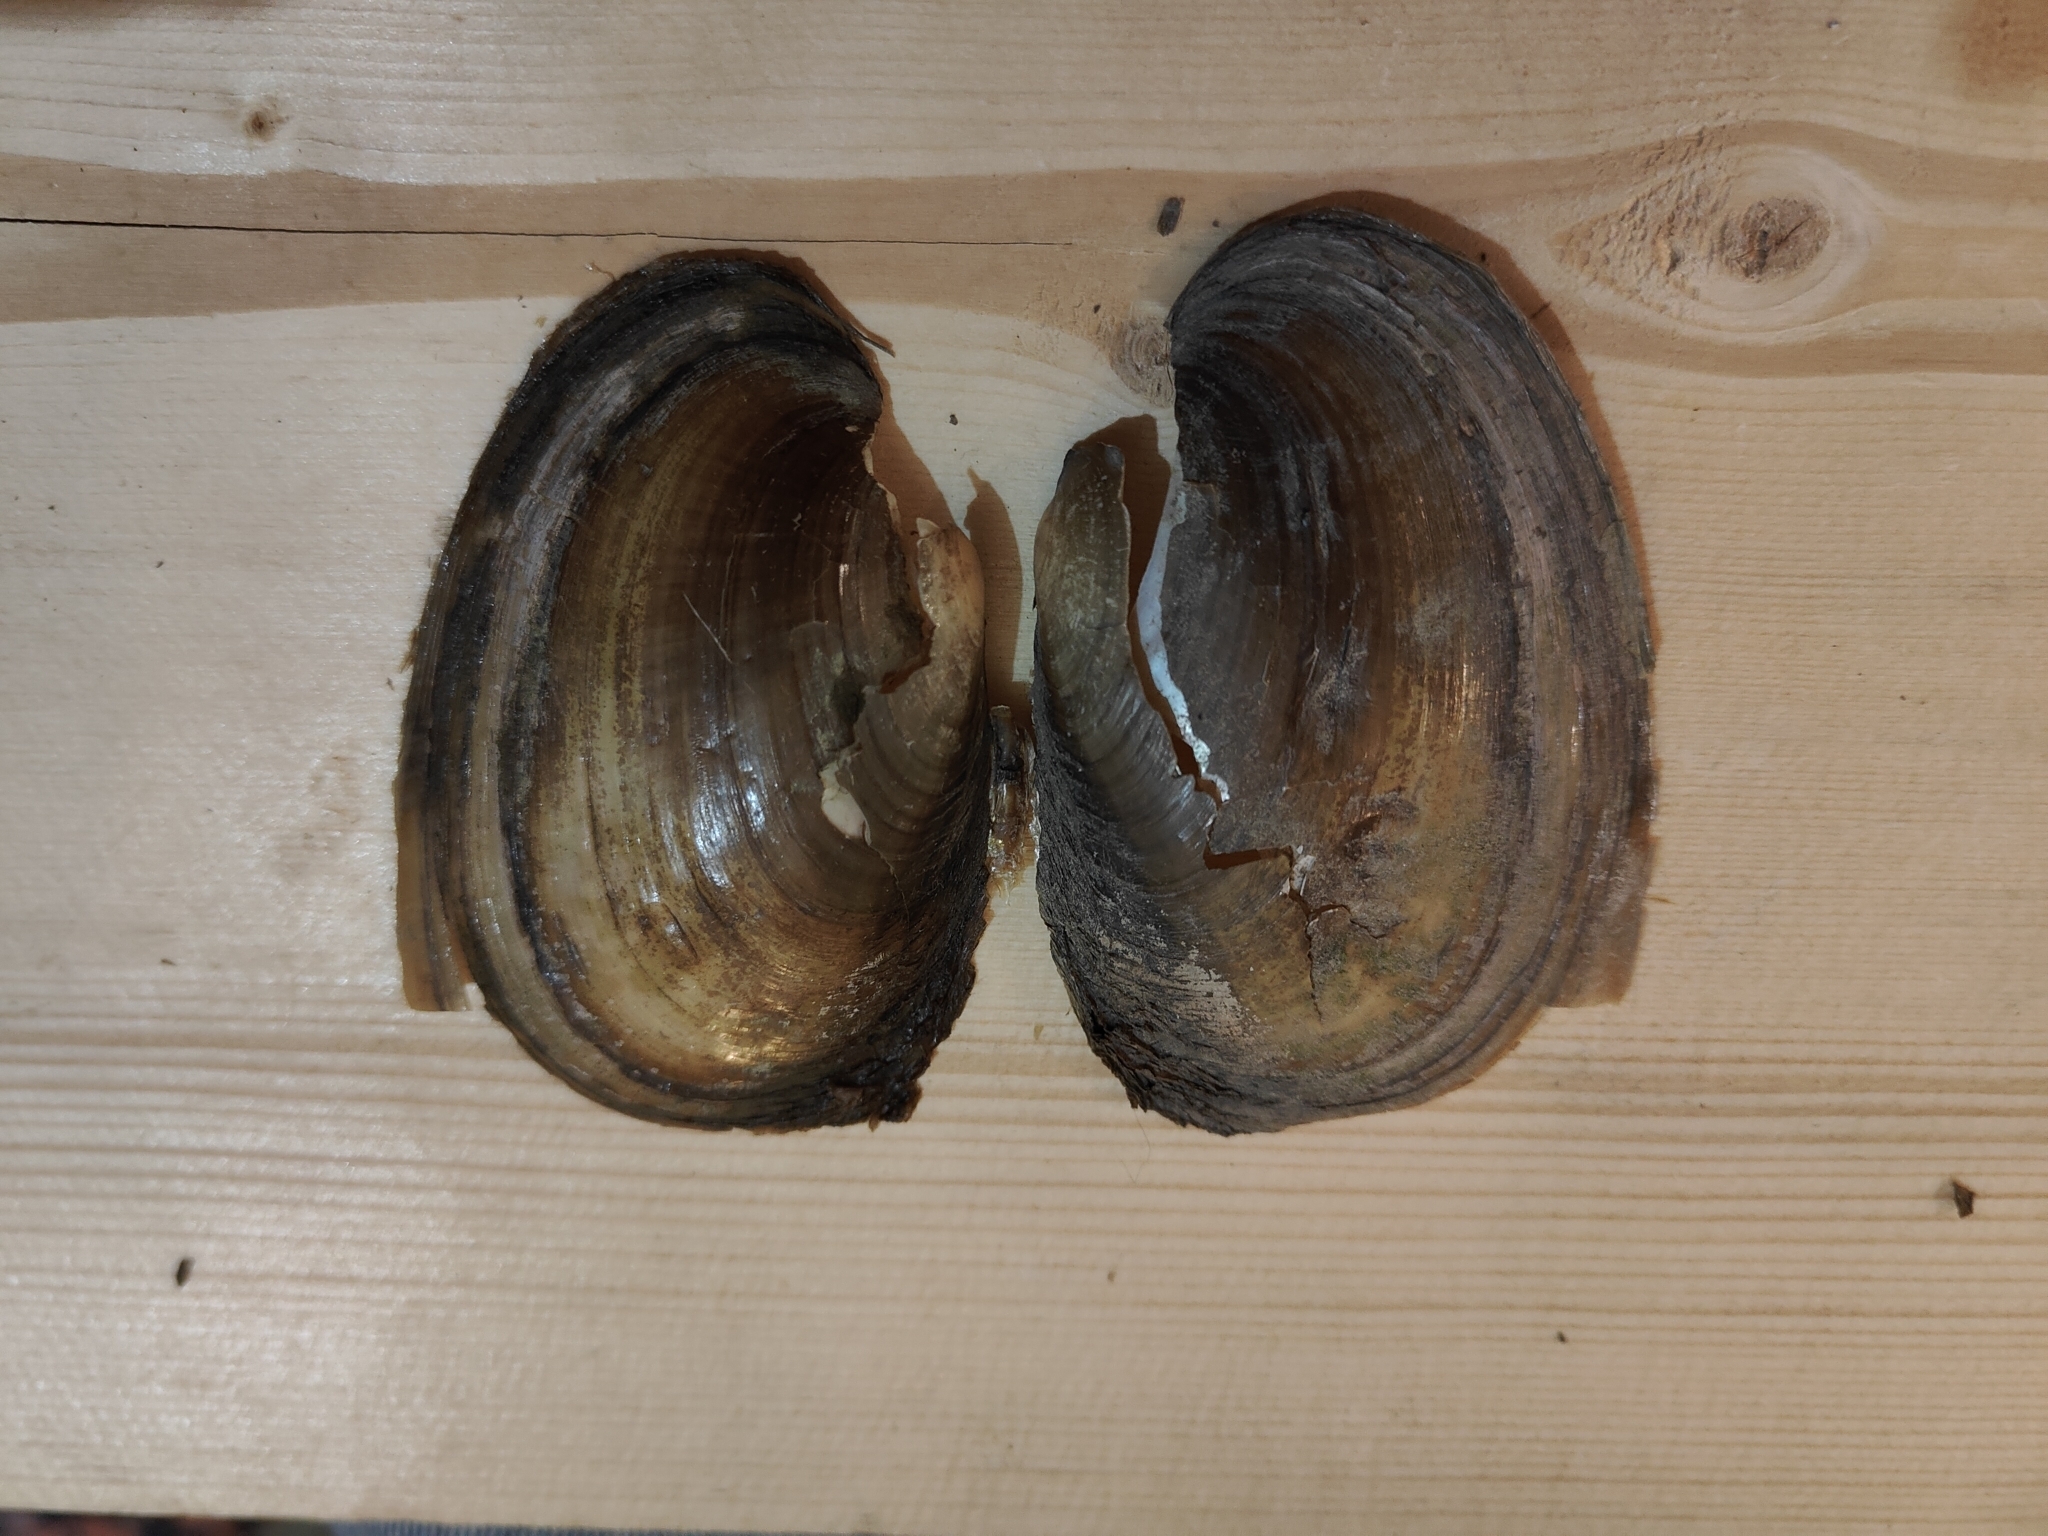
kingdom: Animalia
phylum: Mollusca
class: Bivalvia
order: Unionida
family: Unionidae
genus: Potamilus
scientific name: Potamilus fragilis
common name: Fragile papershell
